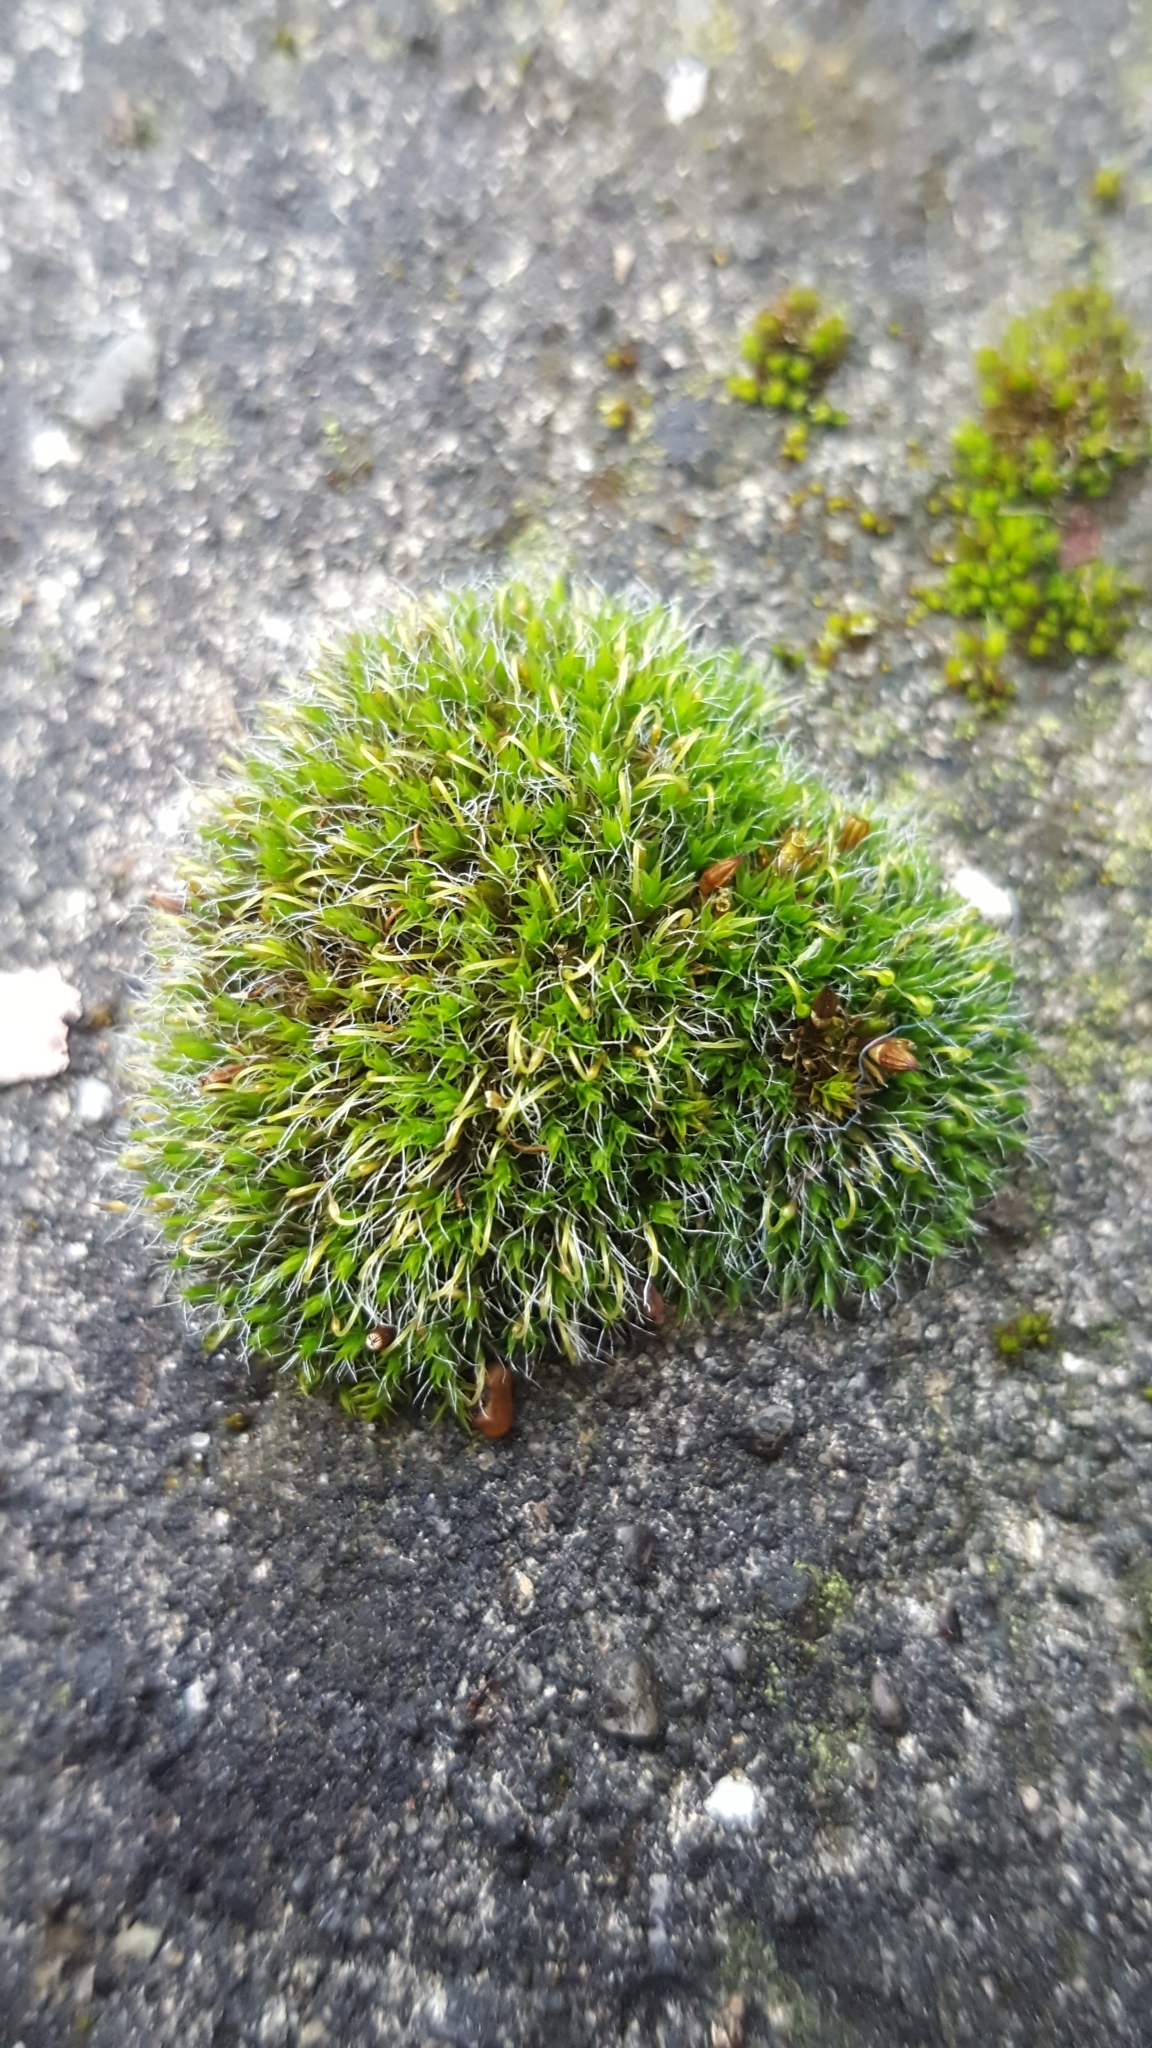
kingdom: Plantae
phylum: Bryophyta
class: Bryopsida
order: Grimmiales
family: Grimmiaceae
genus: Grimmia
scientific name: Grimmia pulvinata
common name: Grey-cushioned grimmia
